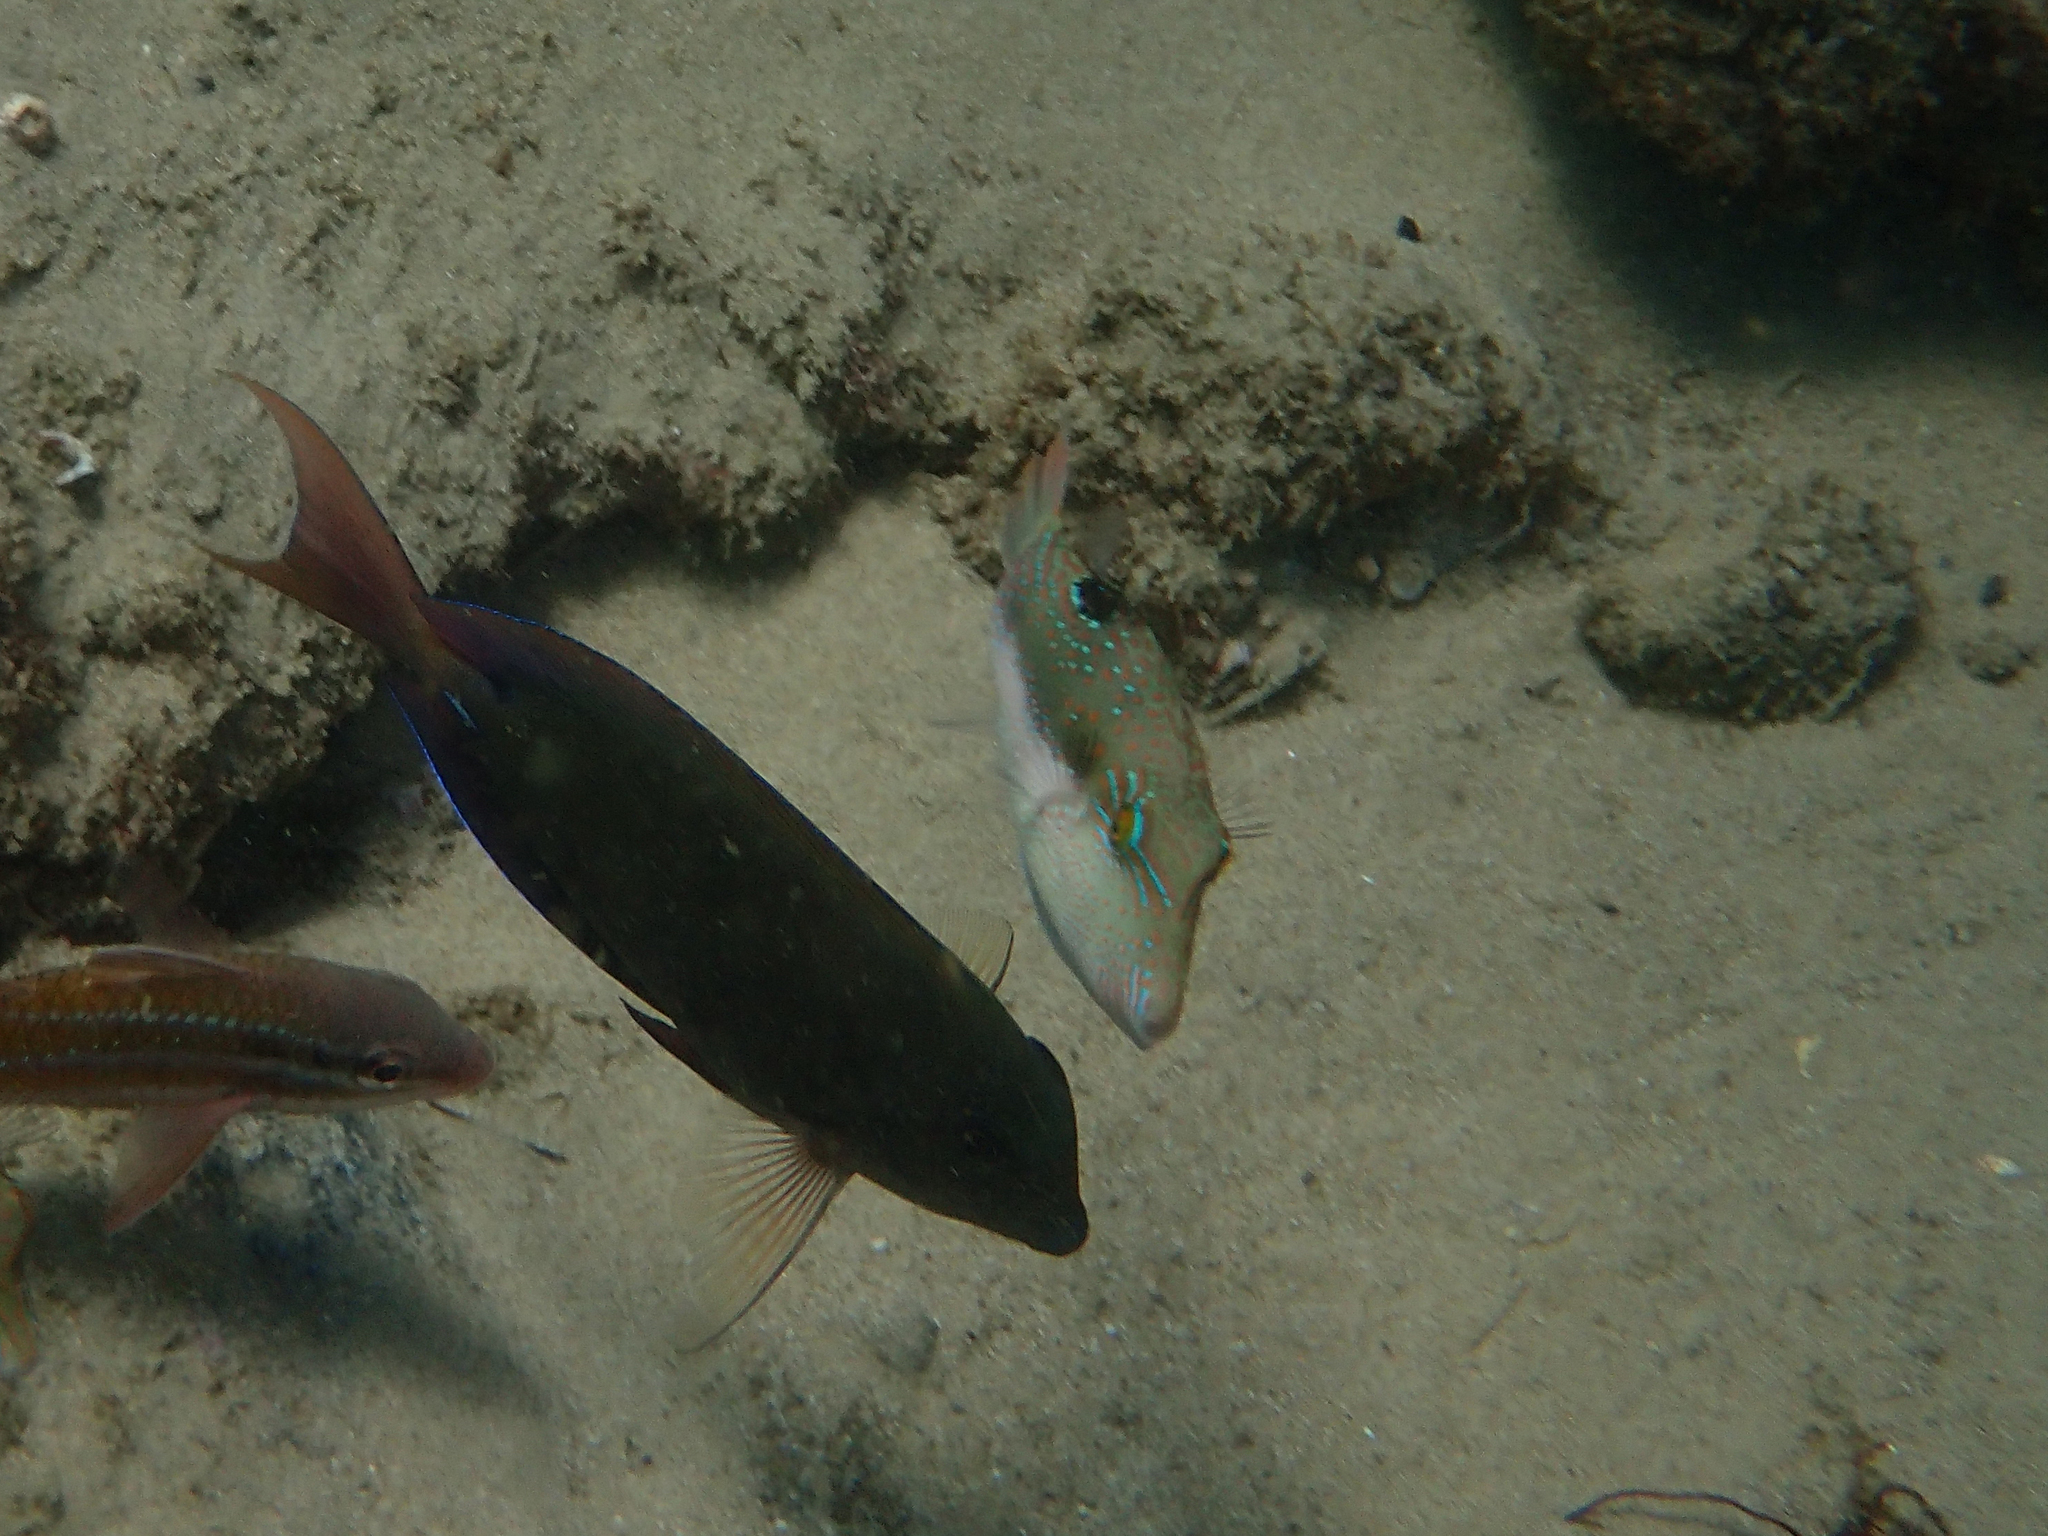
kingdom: Animalia
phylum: Chordata
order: Tetraodontiformes
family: Tetraodontidae
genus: Canthigaster
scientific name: Canthigaster bennetti
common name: Bennett's pufferfish
